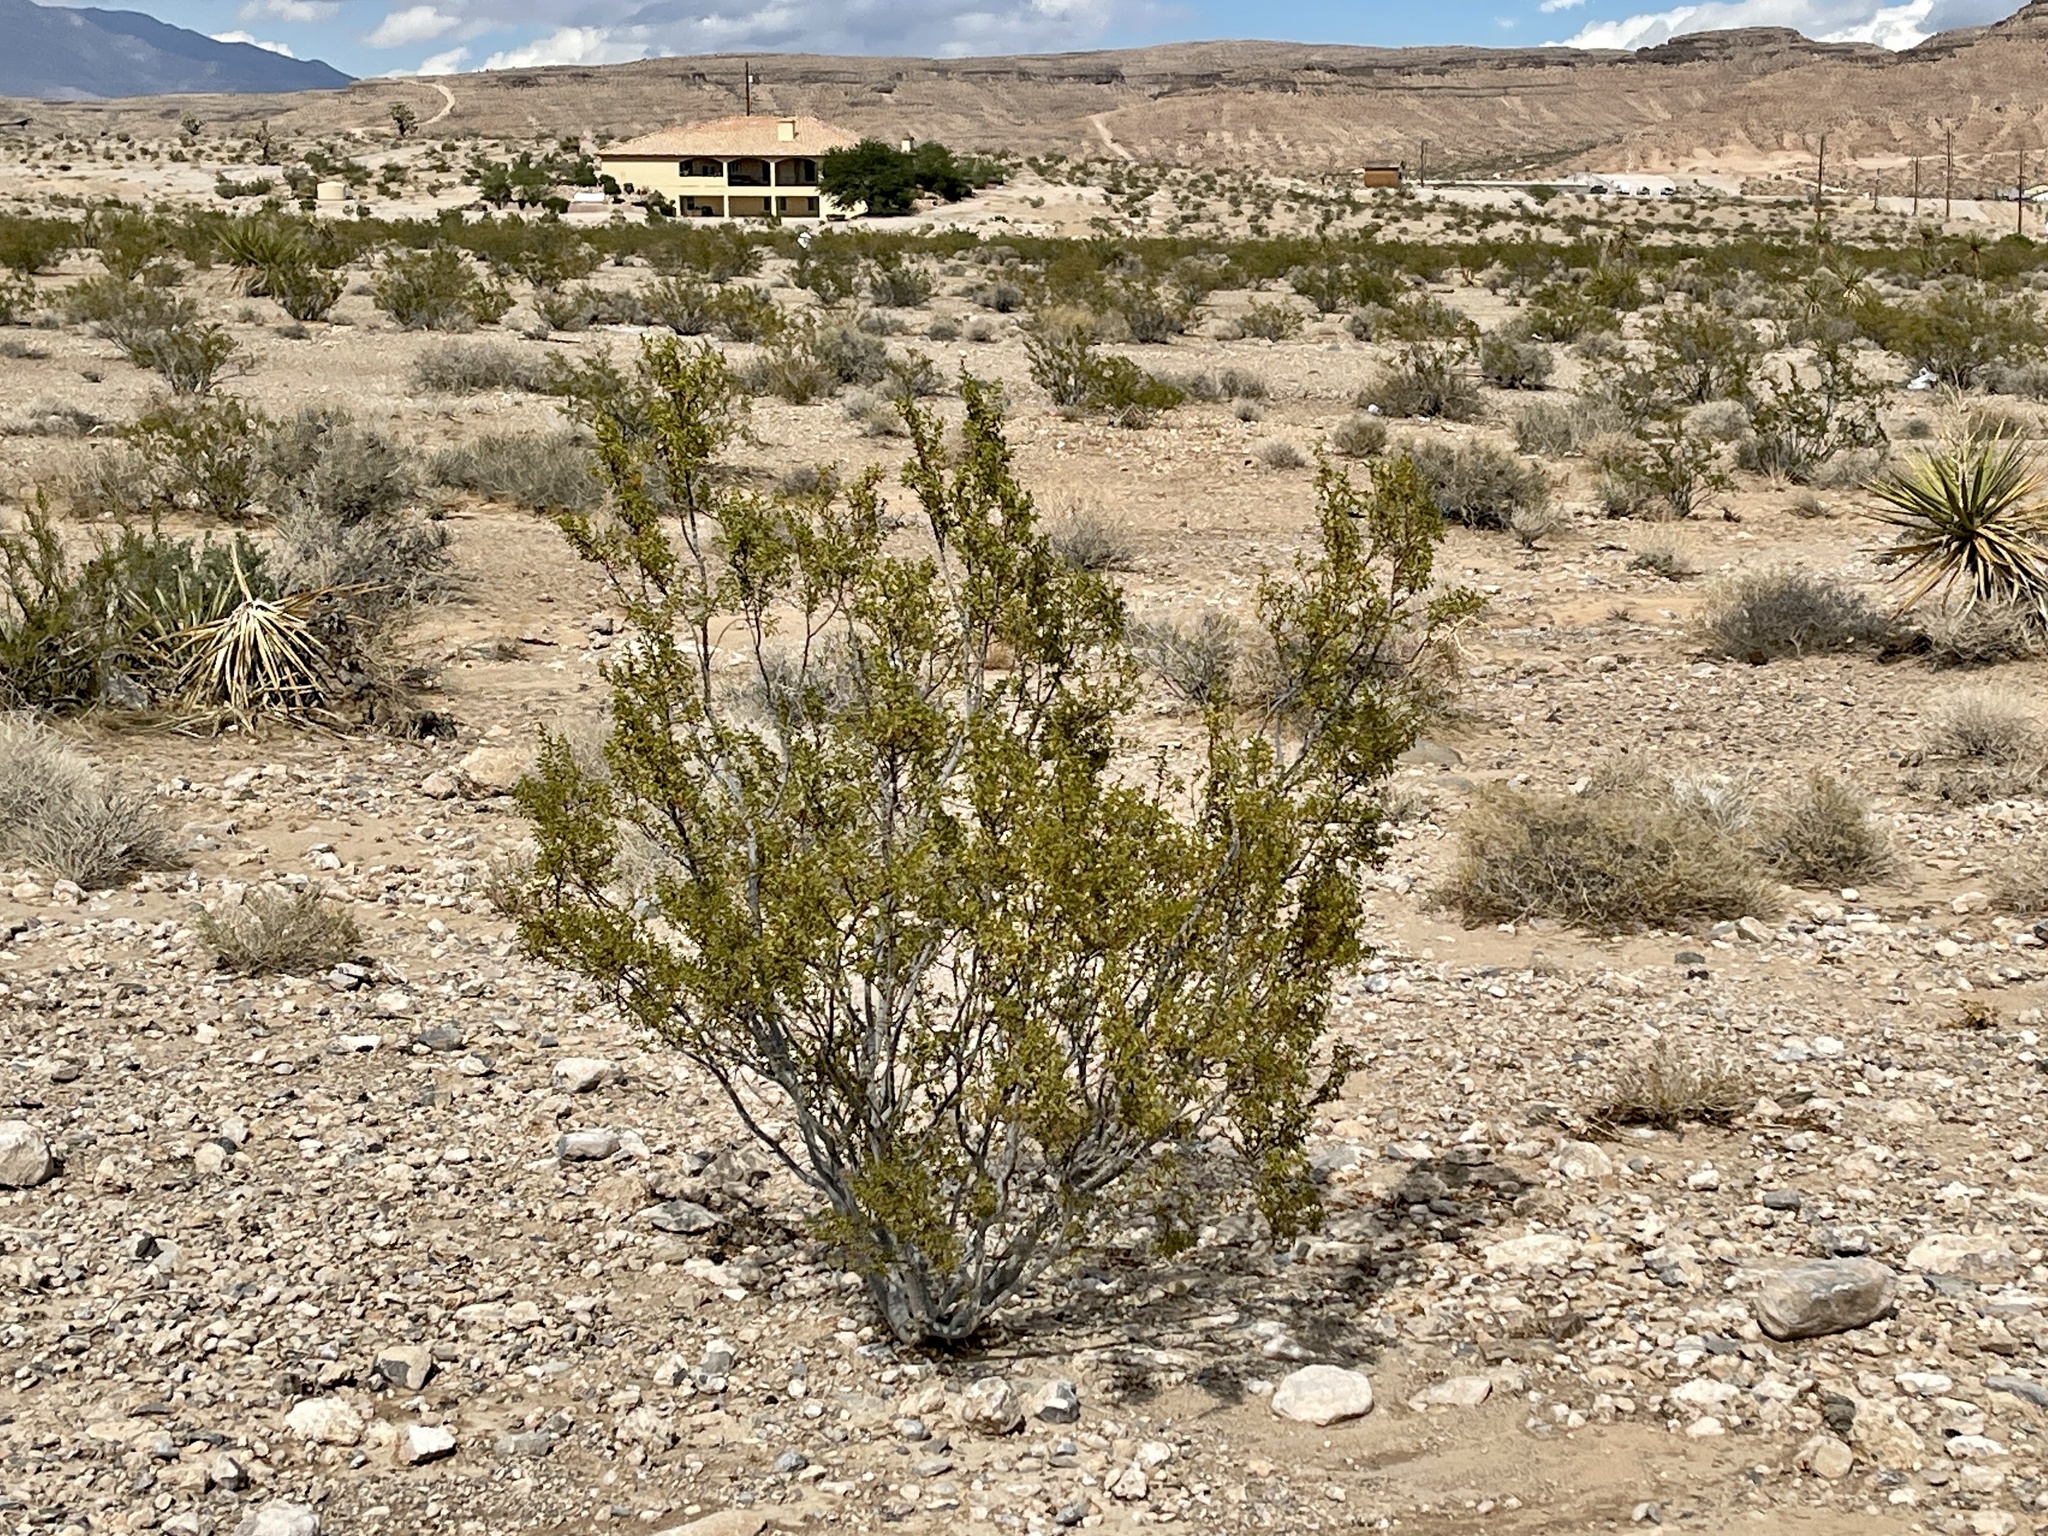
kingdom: Plantae
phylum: Tracheophyta
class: Magnoliopsida
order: Zygophyllales
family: Zygophyllaceae
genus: Larrea
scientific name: Larrea tridentata
